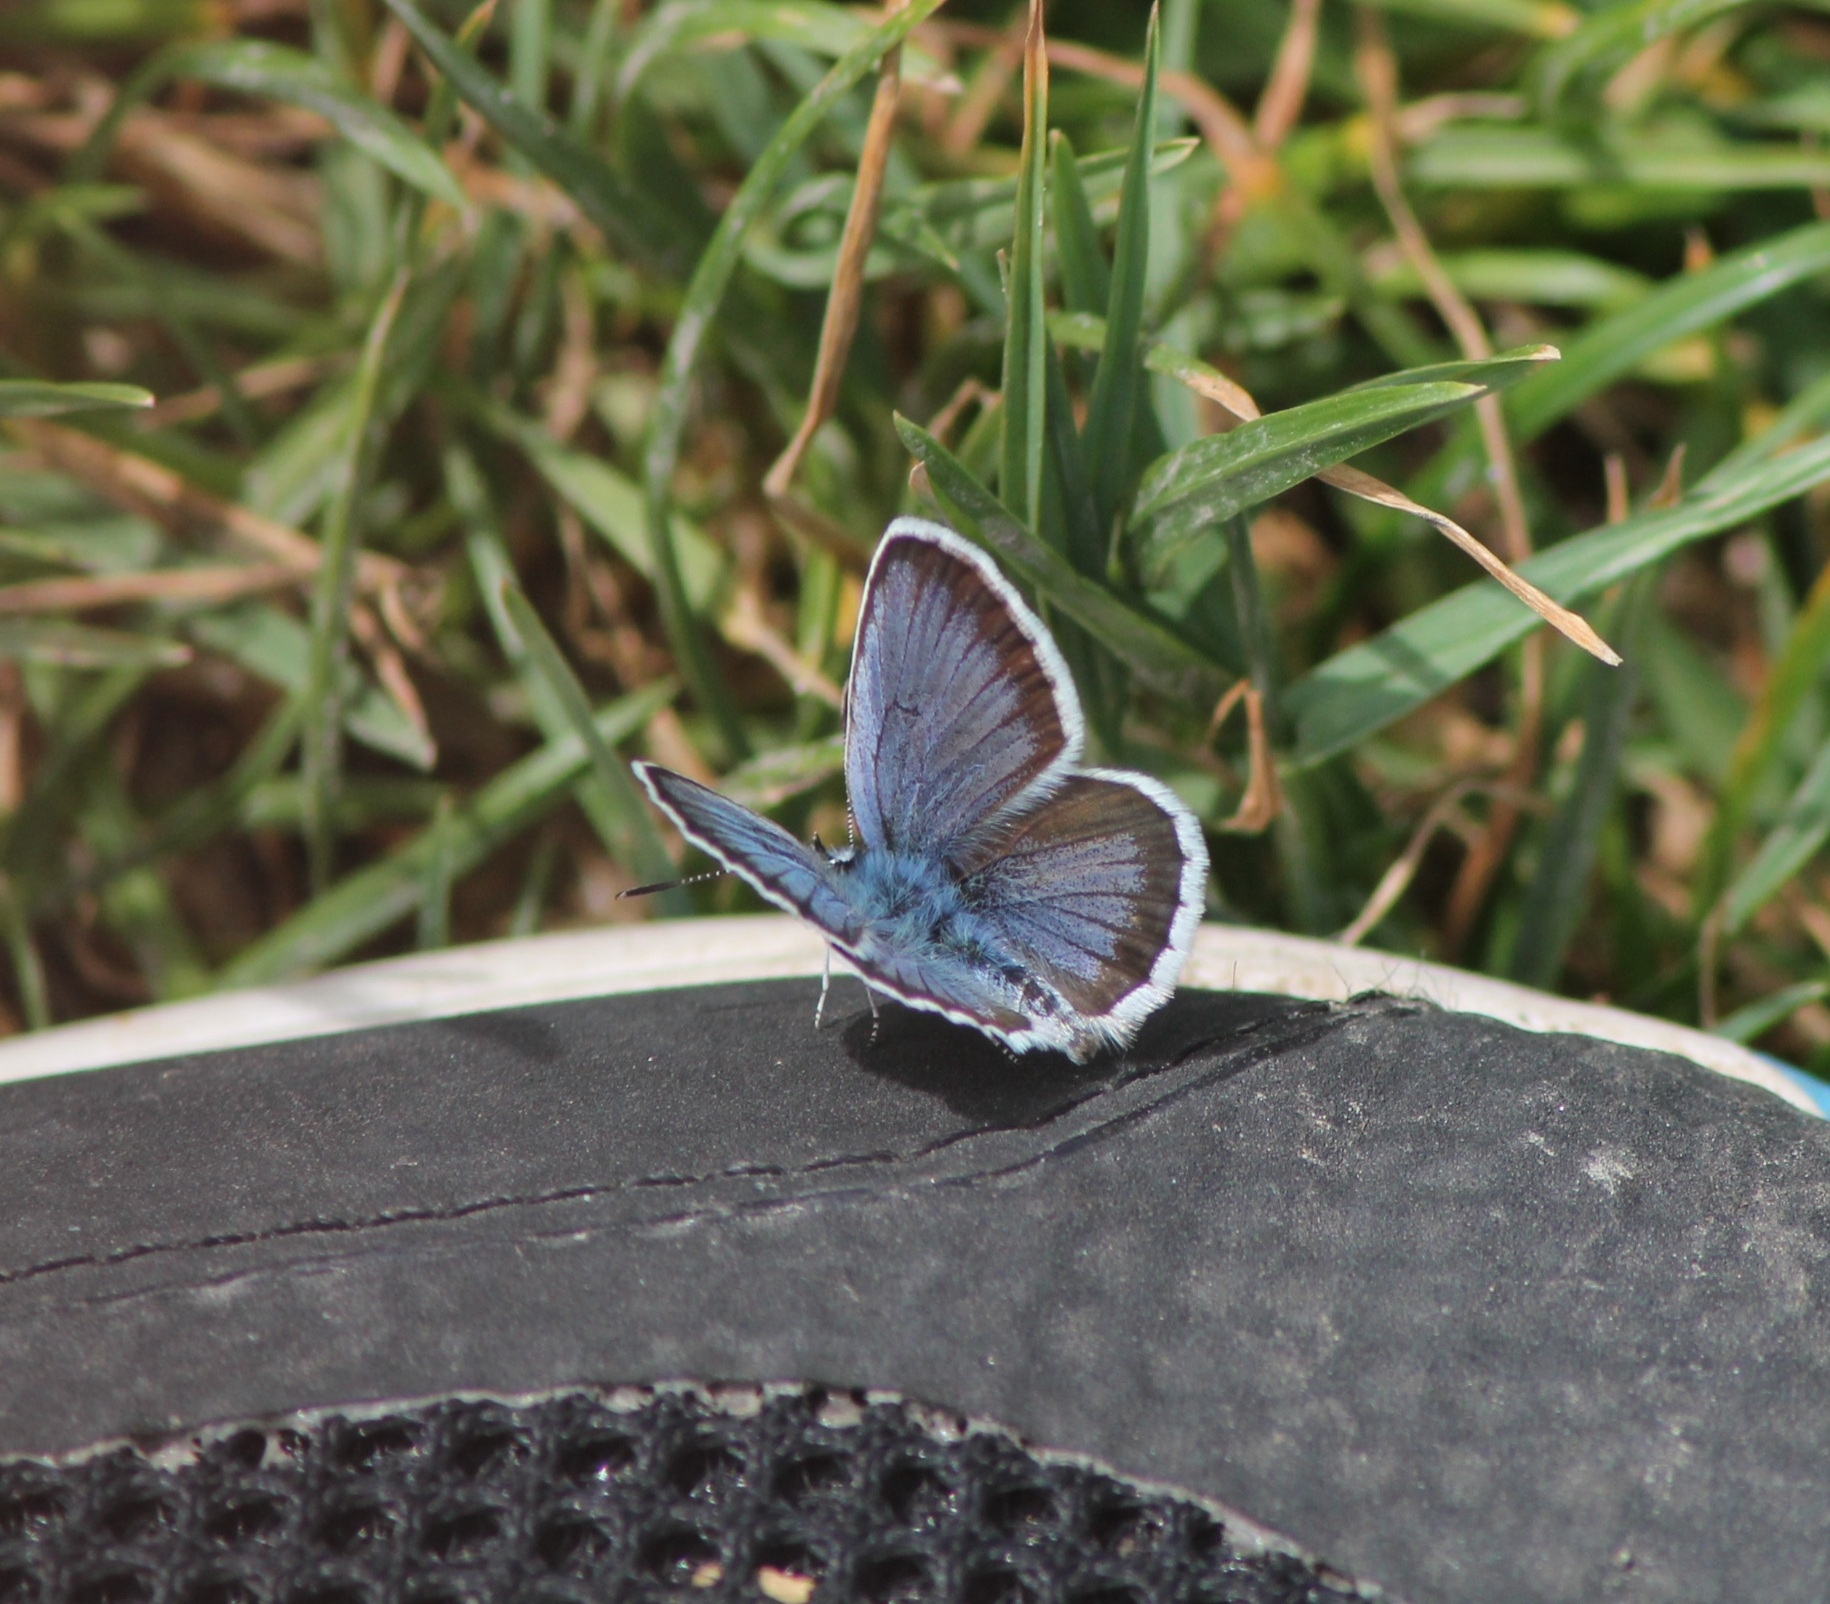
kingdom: Animalia
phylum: Arthropoda
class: Insecta
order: Lepidoptera
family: Lycaenidae
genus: Plebejus
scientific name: Plebejus argus
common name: Silver-studded blue
